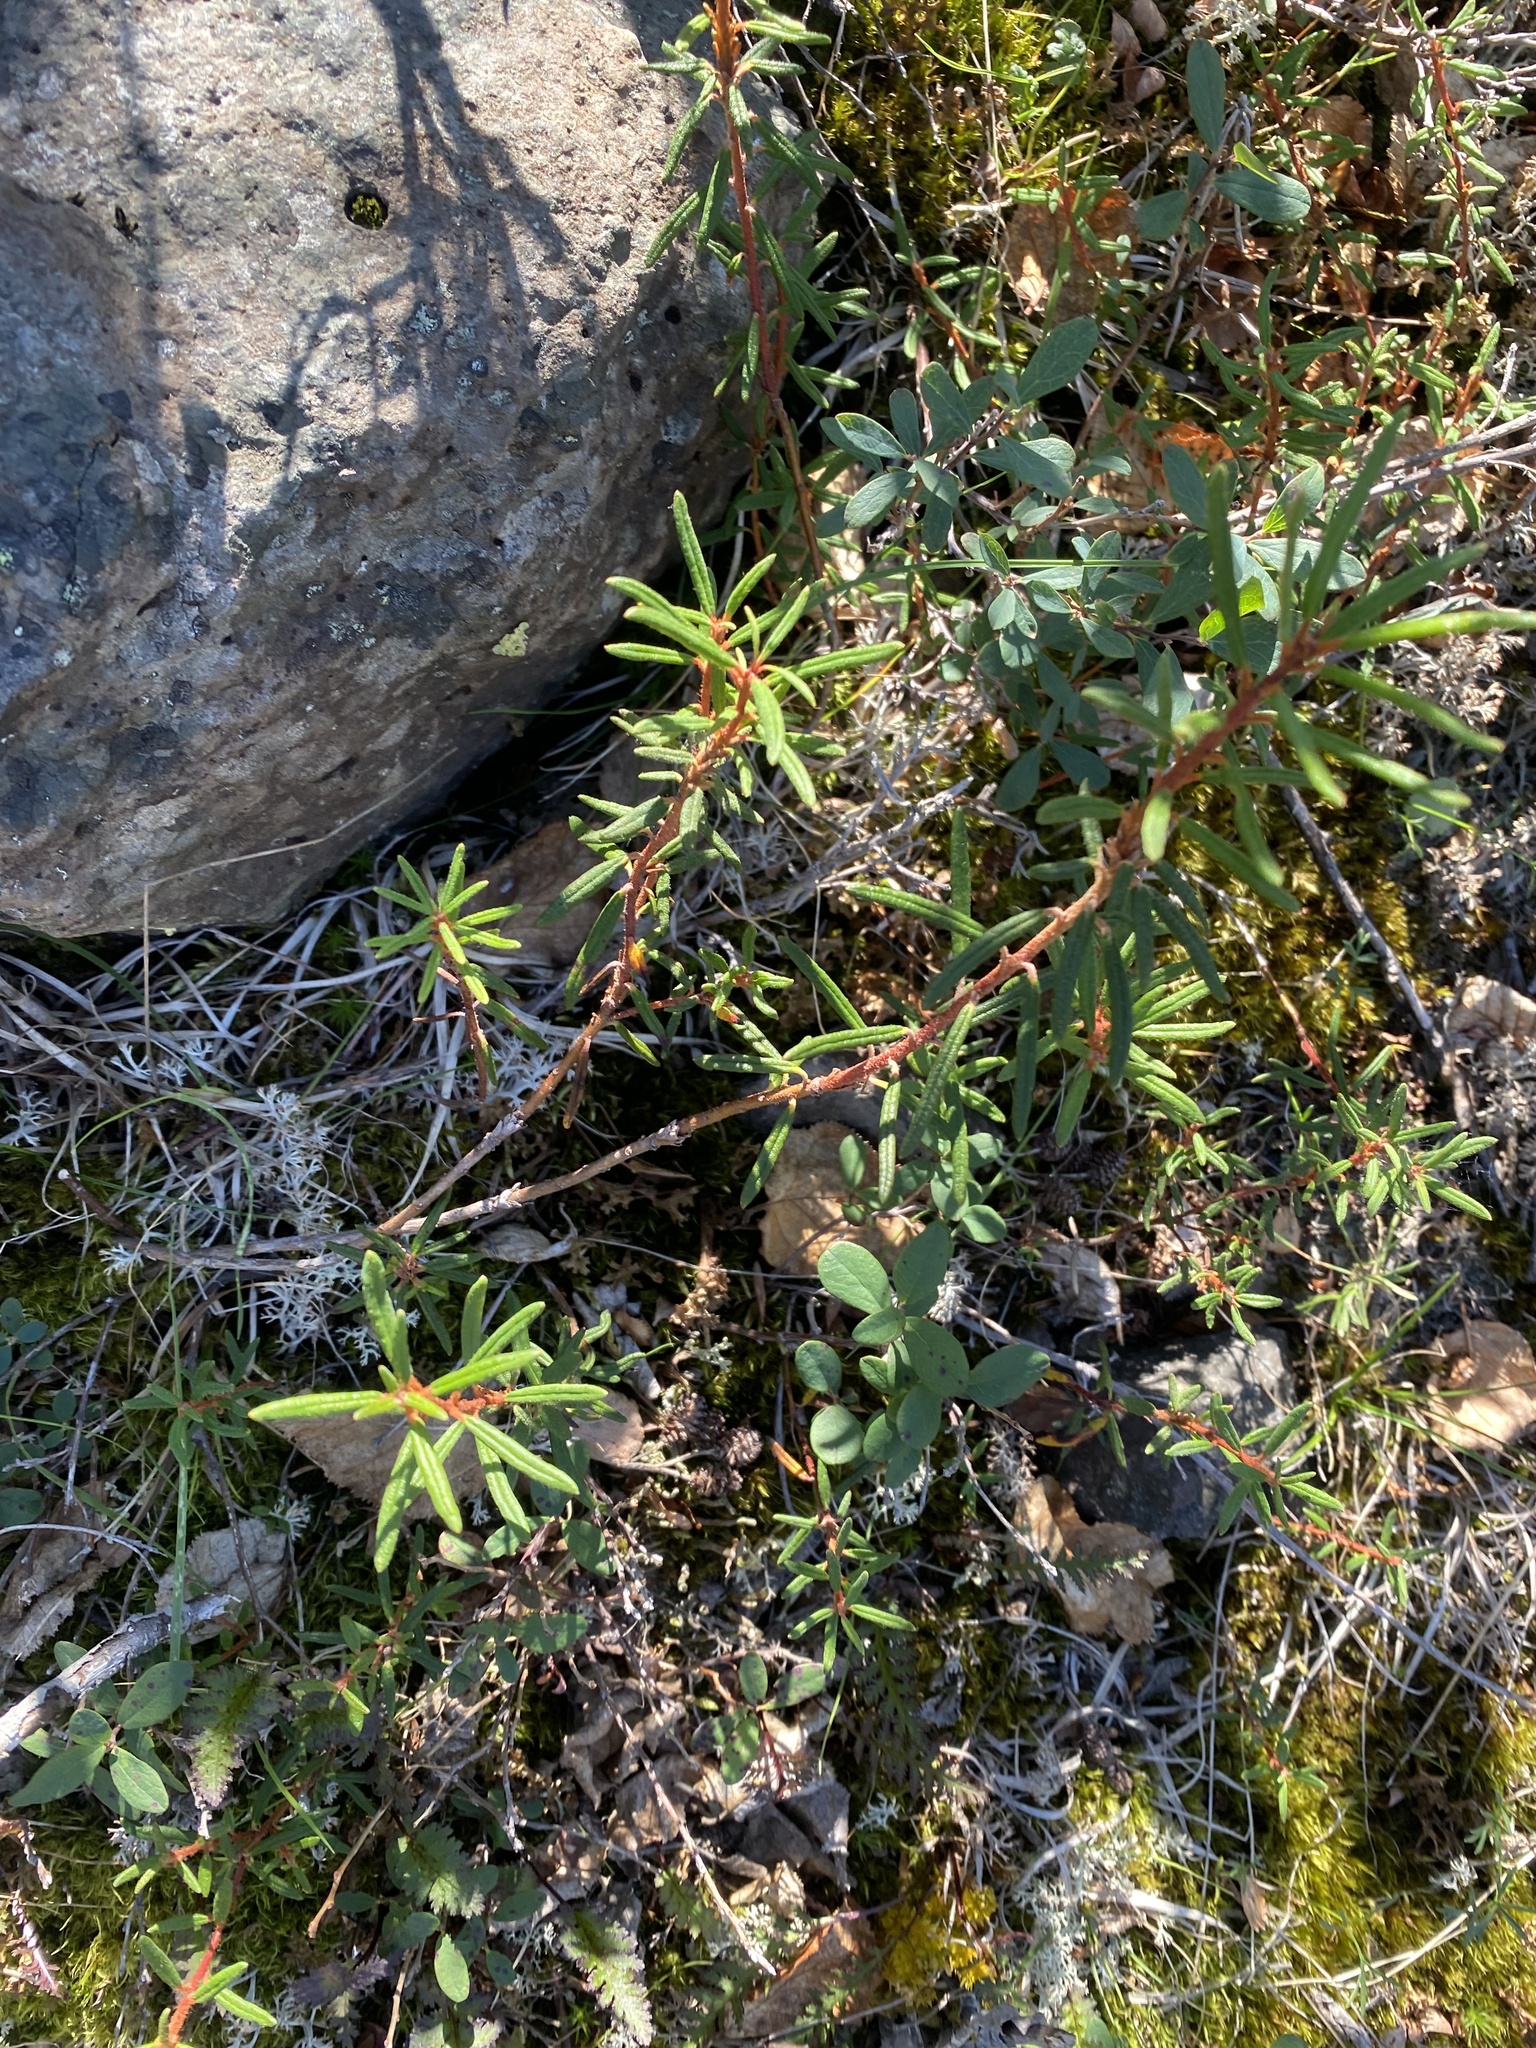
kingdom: Plantae
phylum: Tracheophyta
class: Magnoliopsida
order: Ericales
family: Ericaceae
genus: Rhododendron
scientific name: Rhododendron tomentosum
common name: Marsh labrador tea
